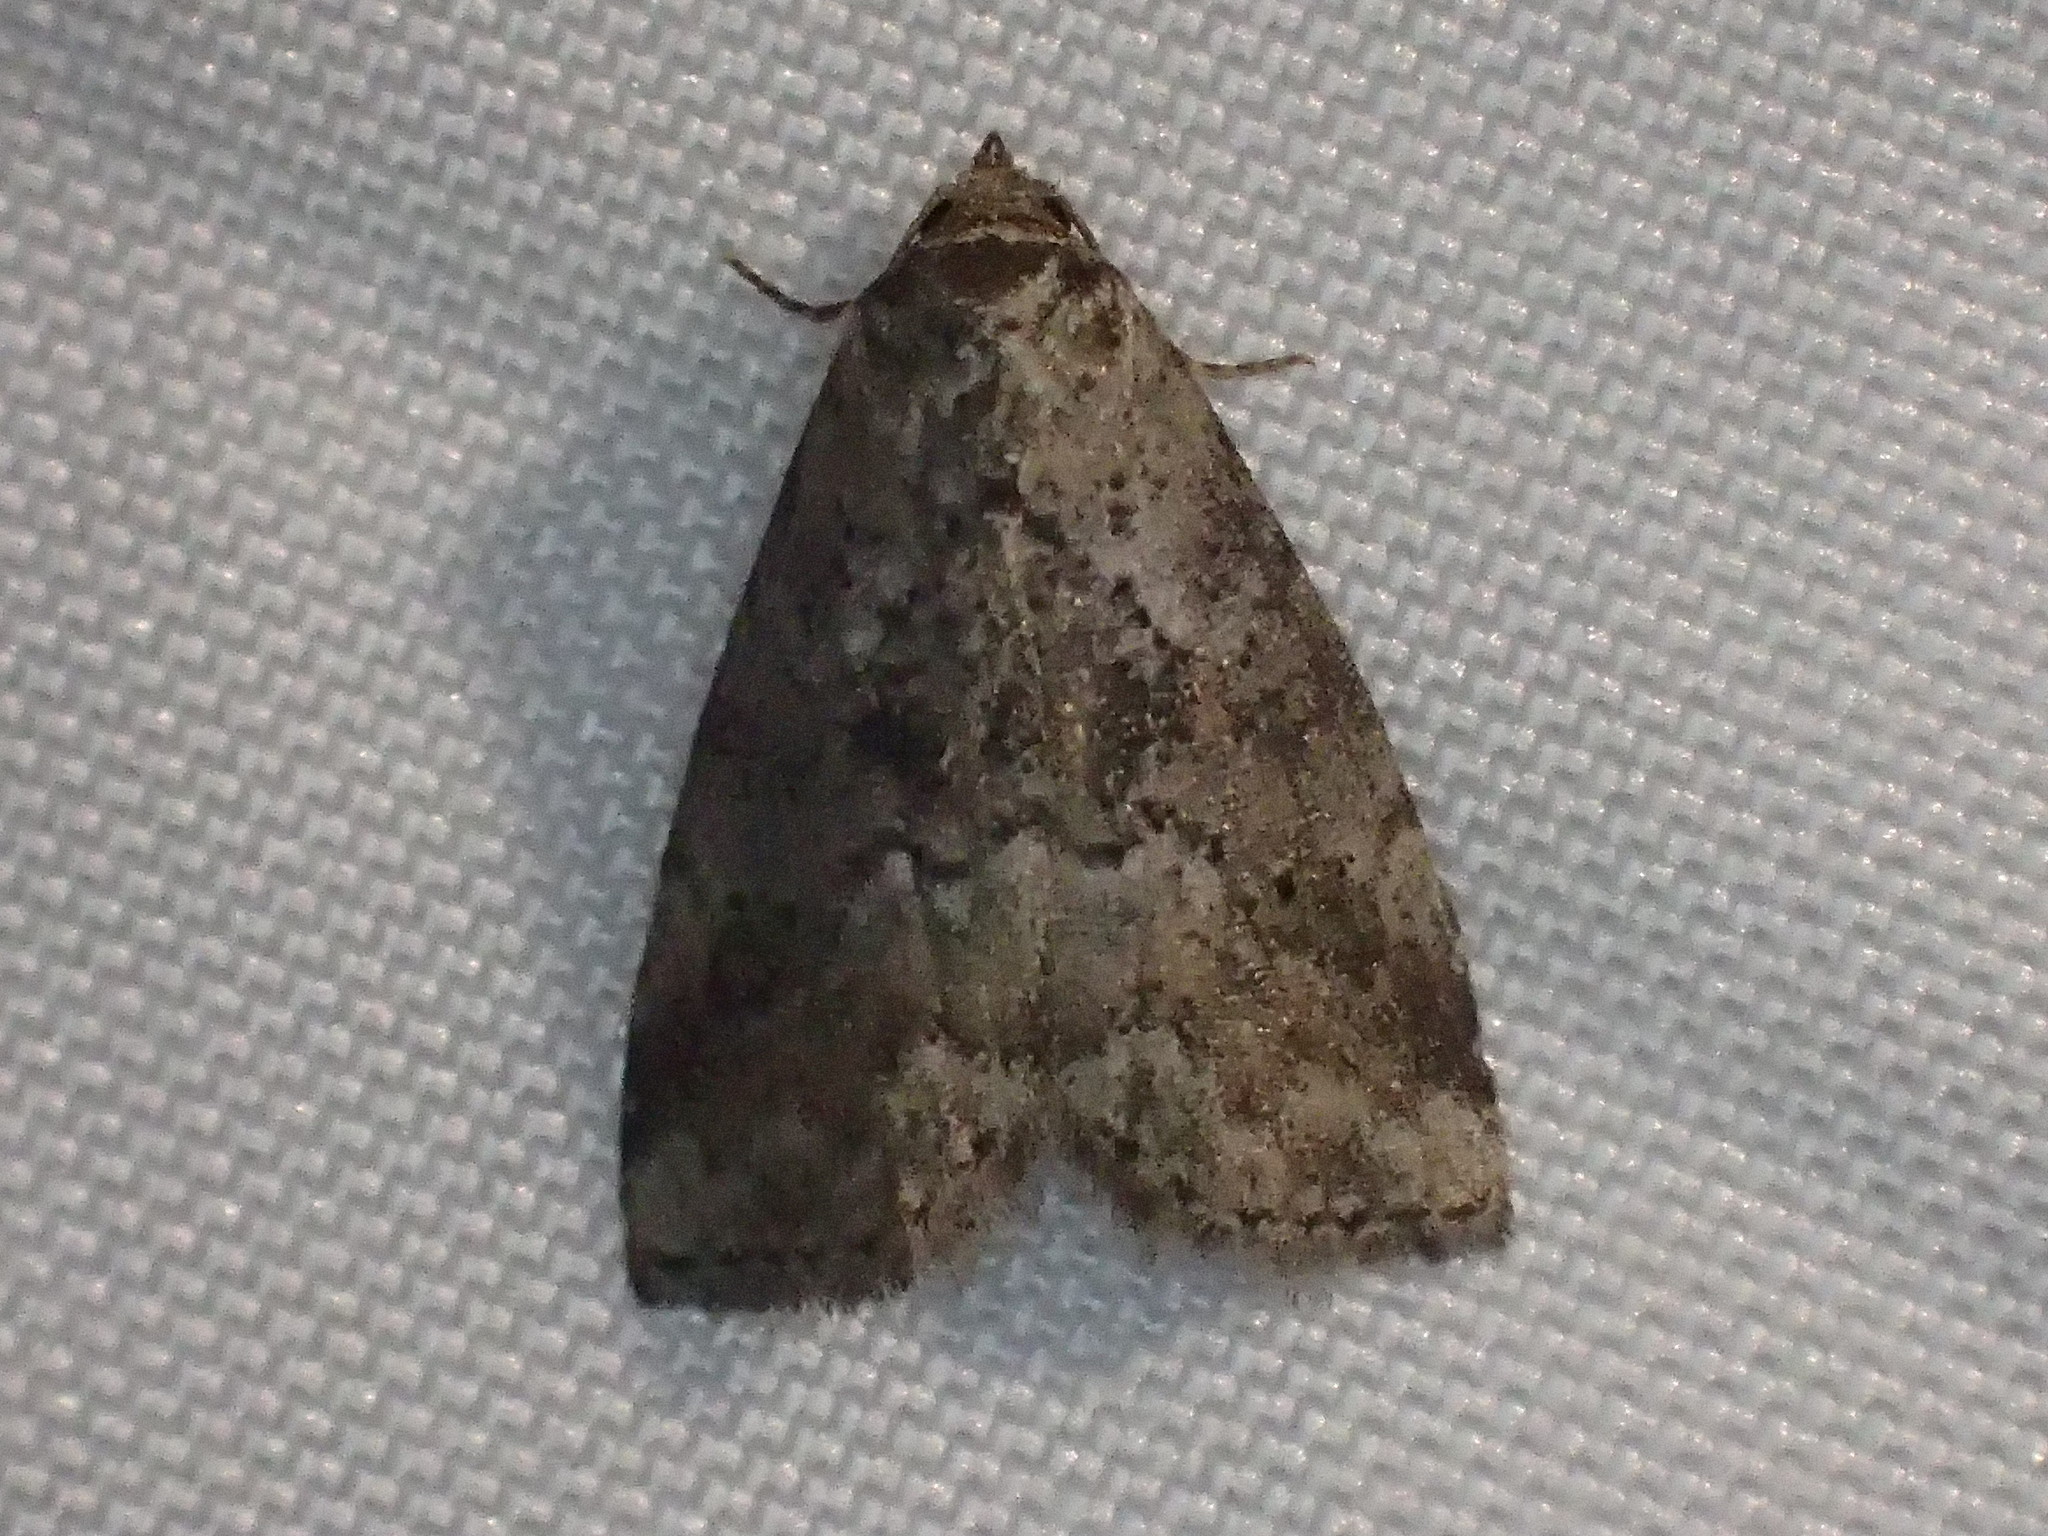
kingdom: Animalia
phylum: Arthropoda
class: Insecta
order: Lepidoptera
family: Erebidae
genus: Hyperstrotia
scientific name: Hyperstrotia pervertens
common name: Dotted graylet
